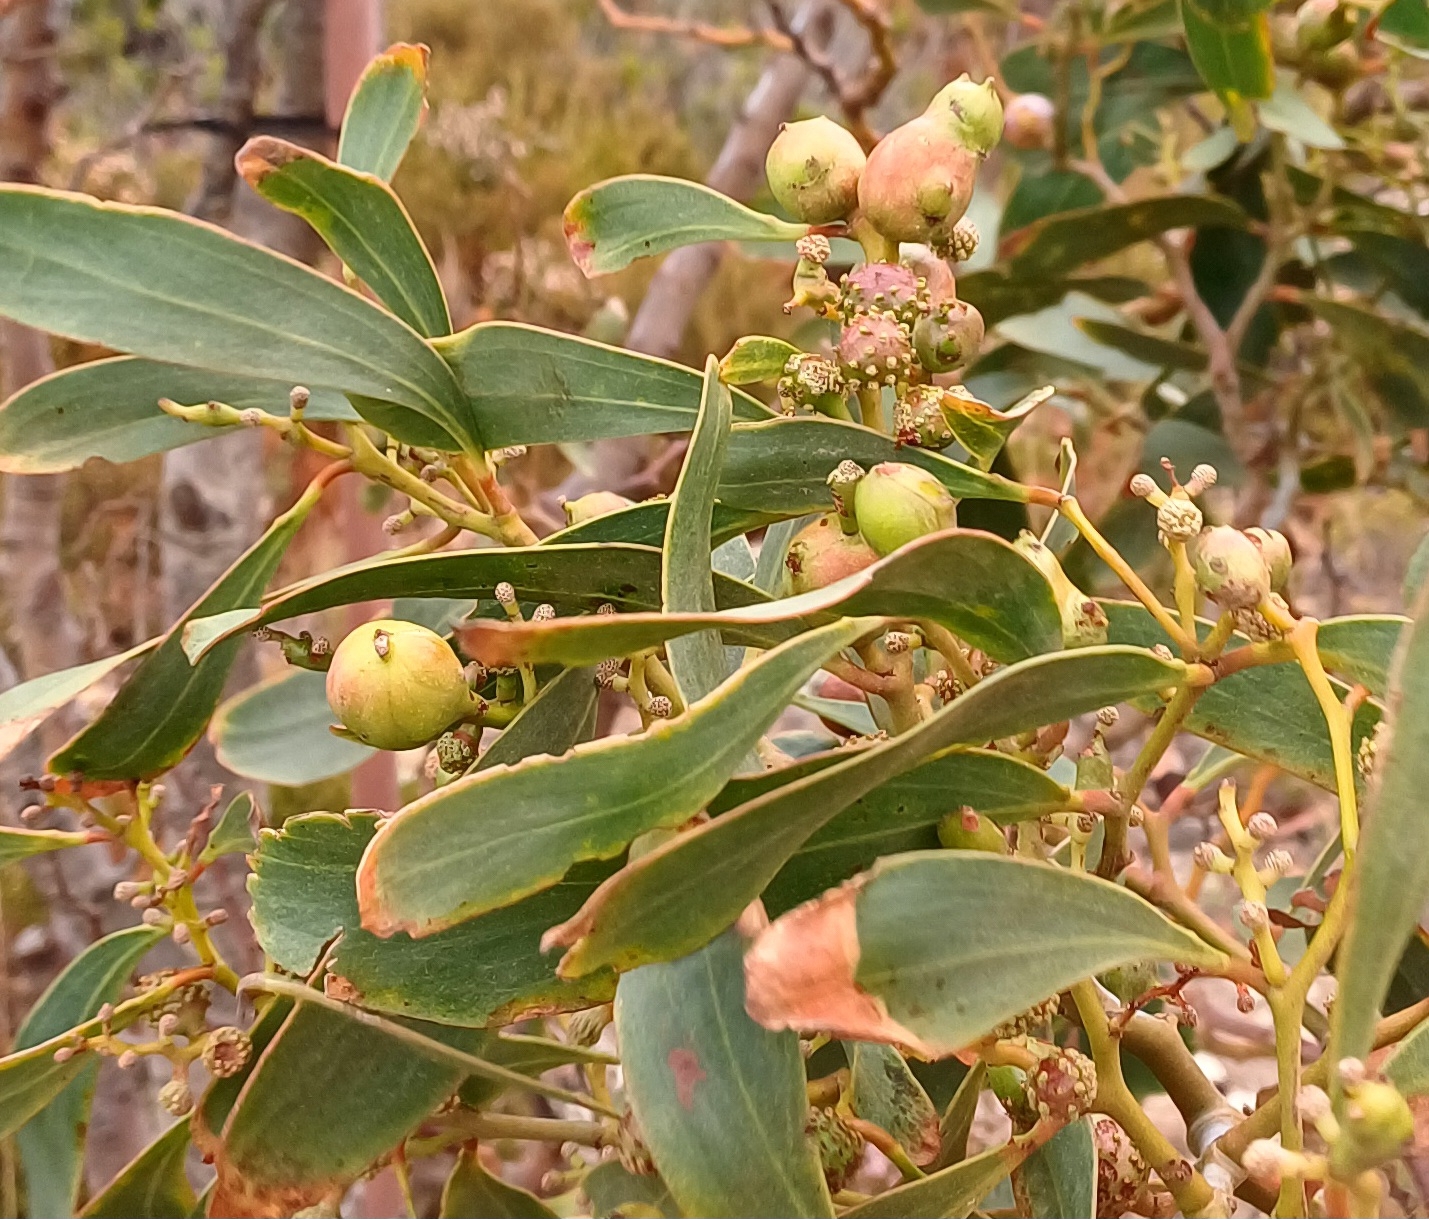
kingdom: Plantae
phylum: Tracheophyta
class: Magnoliopsida
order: Fabales
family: Fabaceae
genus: Acacia
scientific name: Acacia pycnantha
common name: Golden wattle
